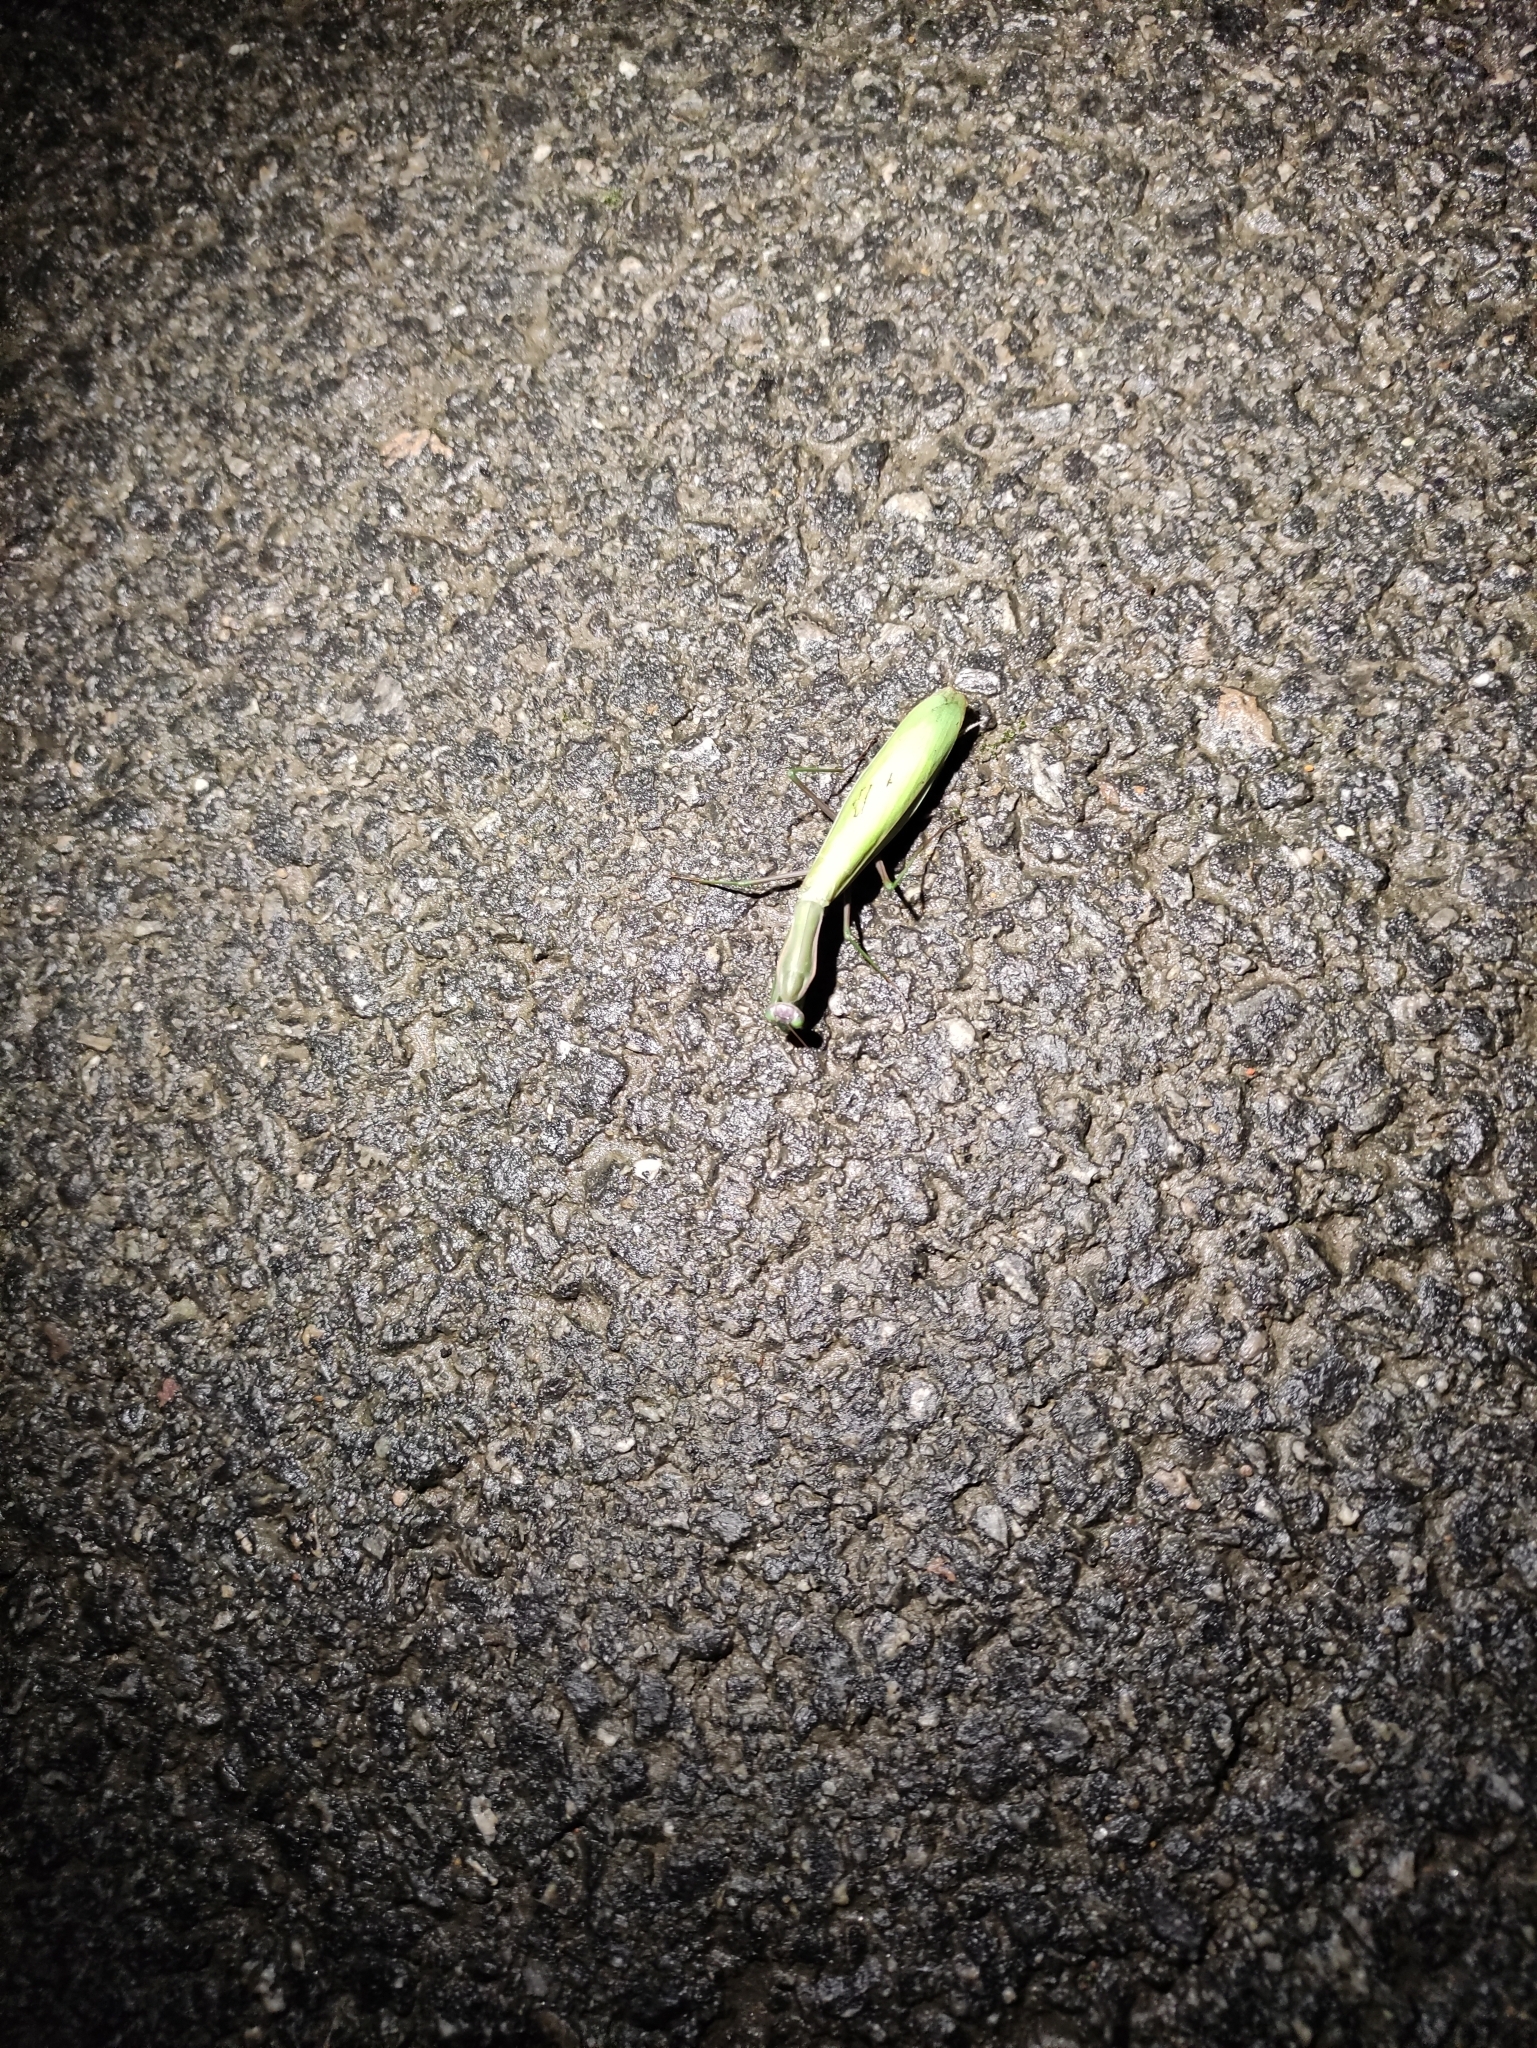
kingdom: Animalia
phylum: Arthropoda
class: Insecta
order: Mantodea
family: Mantidae
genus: Mantis
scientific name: Mantis religiosa
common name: Praying mantis
